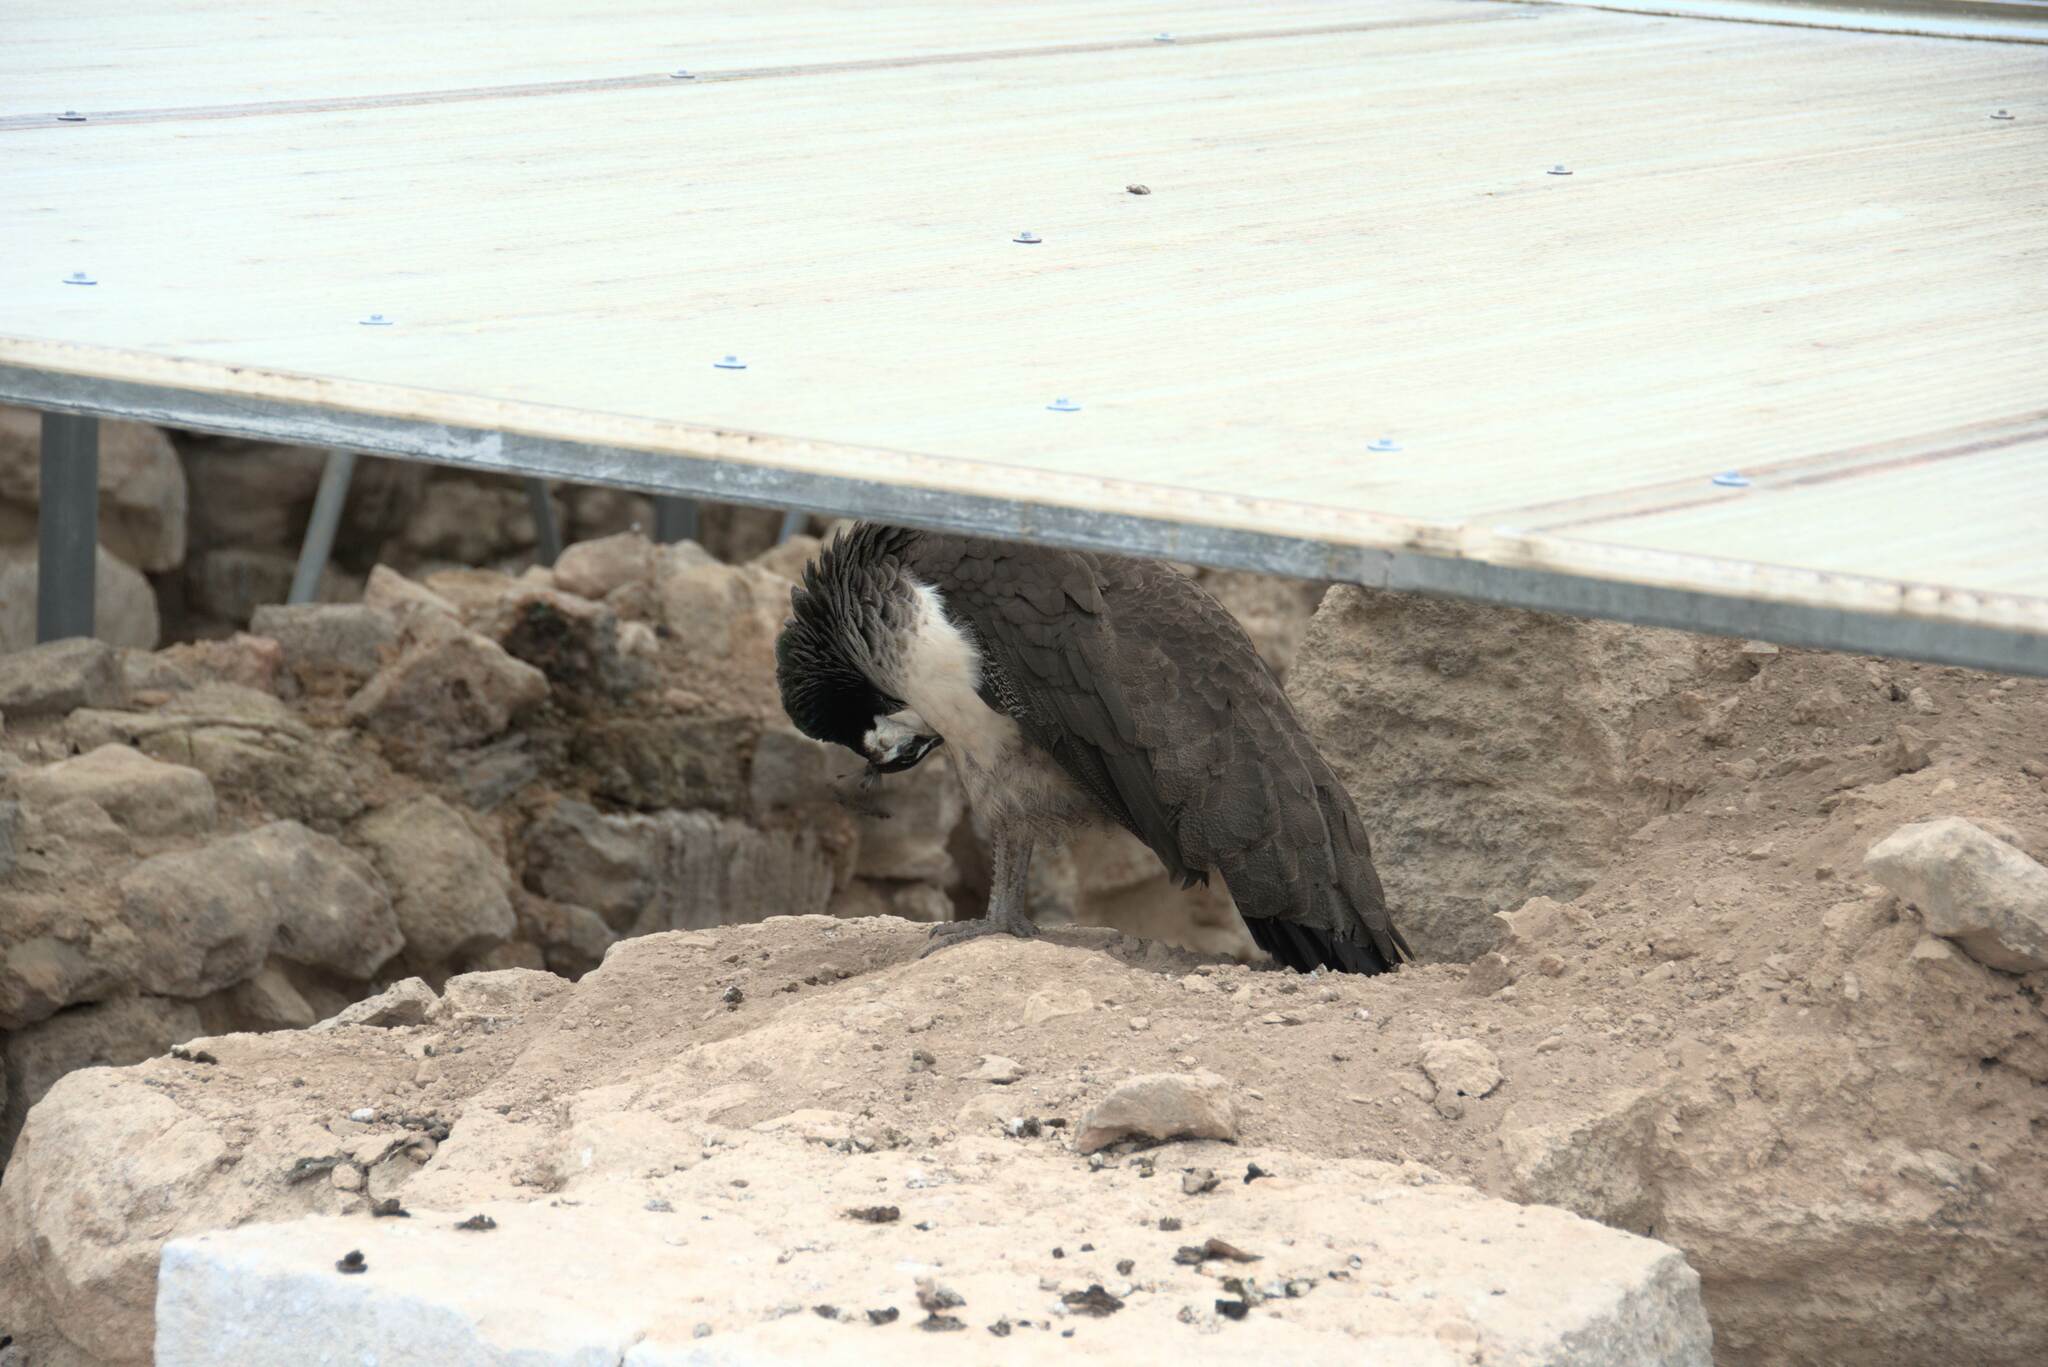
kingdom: Animalia
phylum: Chordata
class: Aves
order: Galliformes
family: Phasianidae
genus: Pavo
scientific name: Pavo cristatus
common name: Indian peafowl
